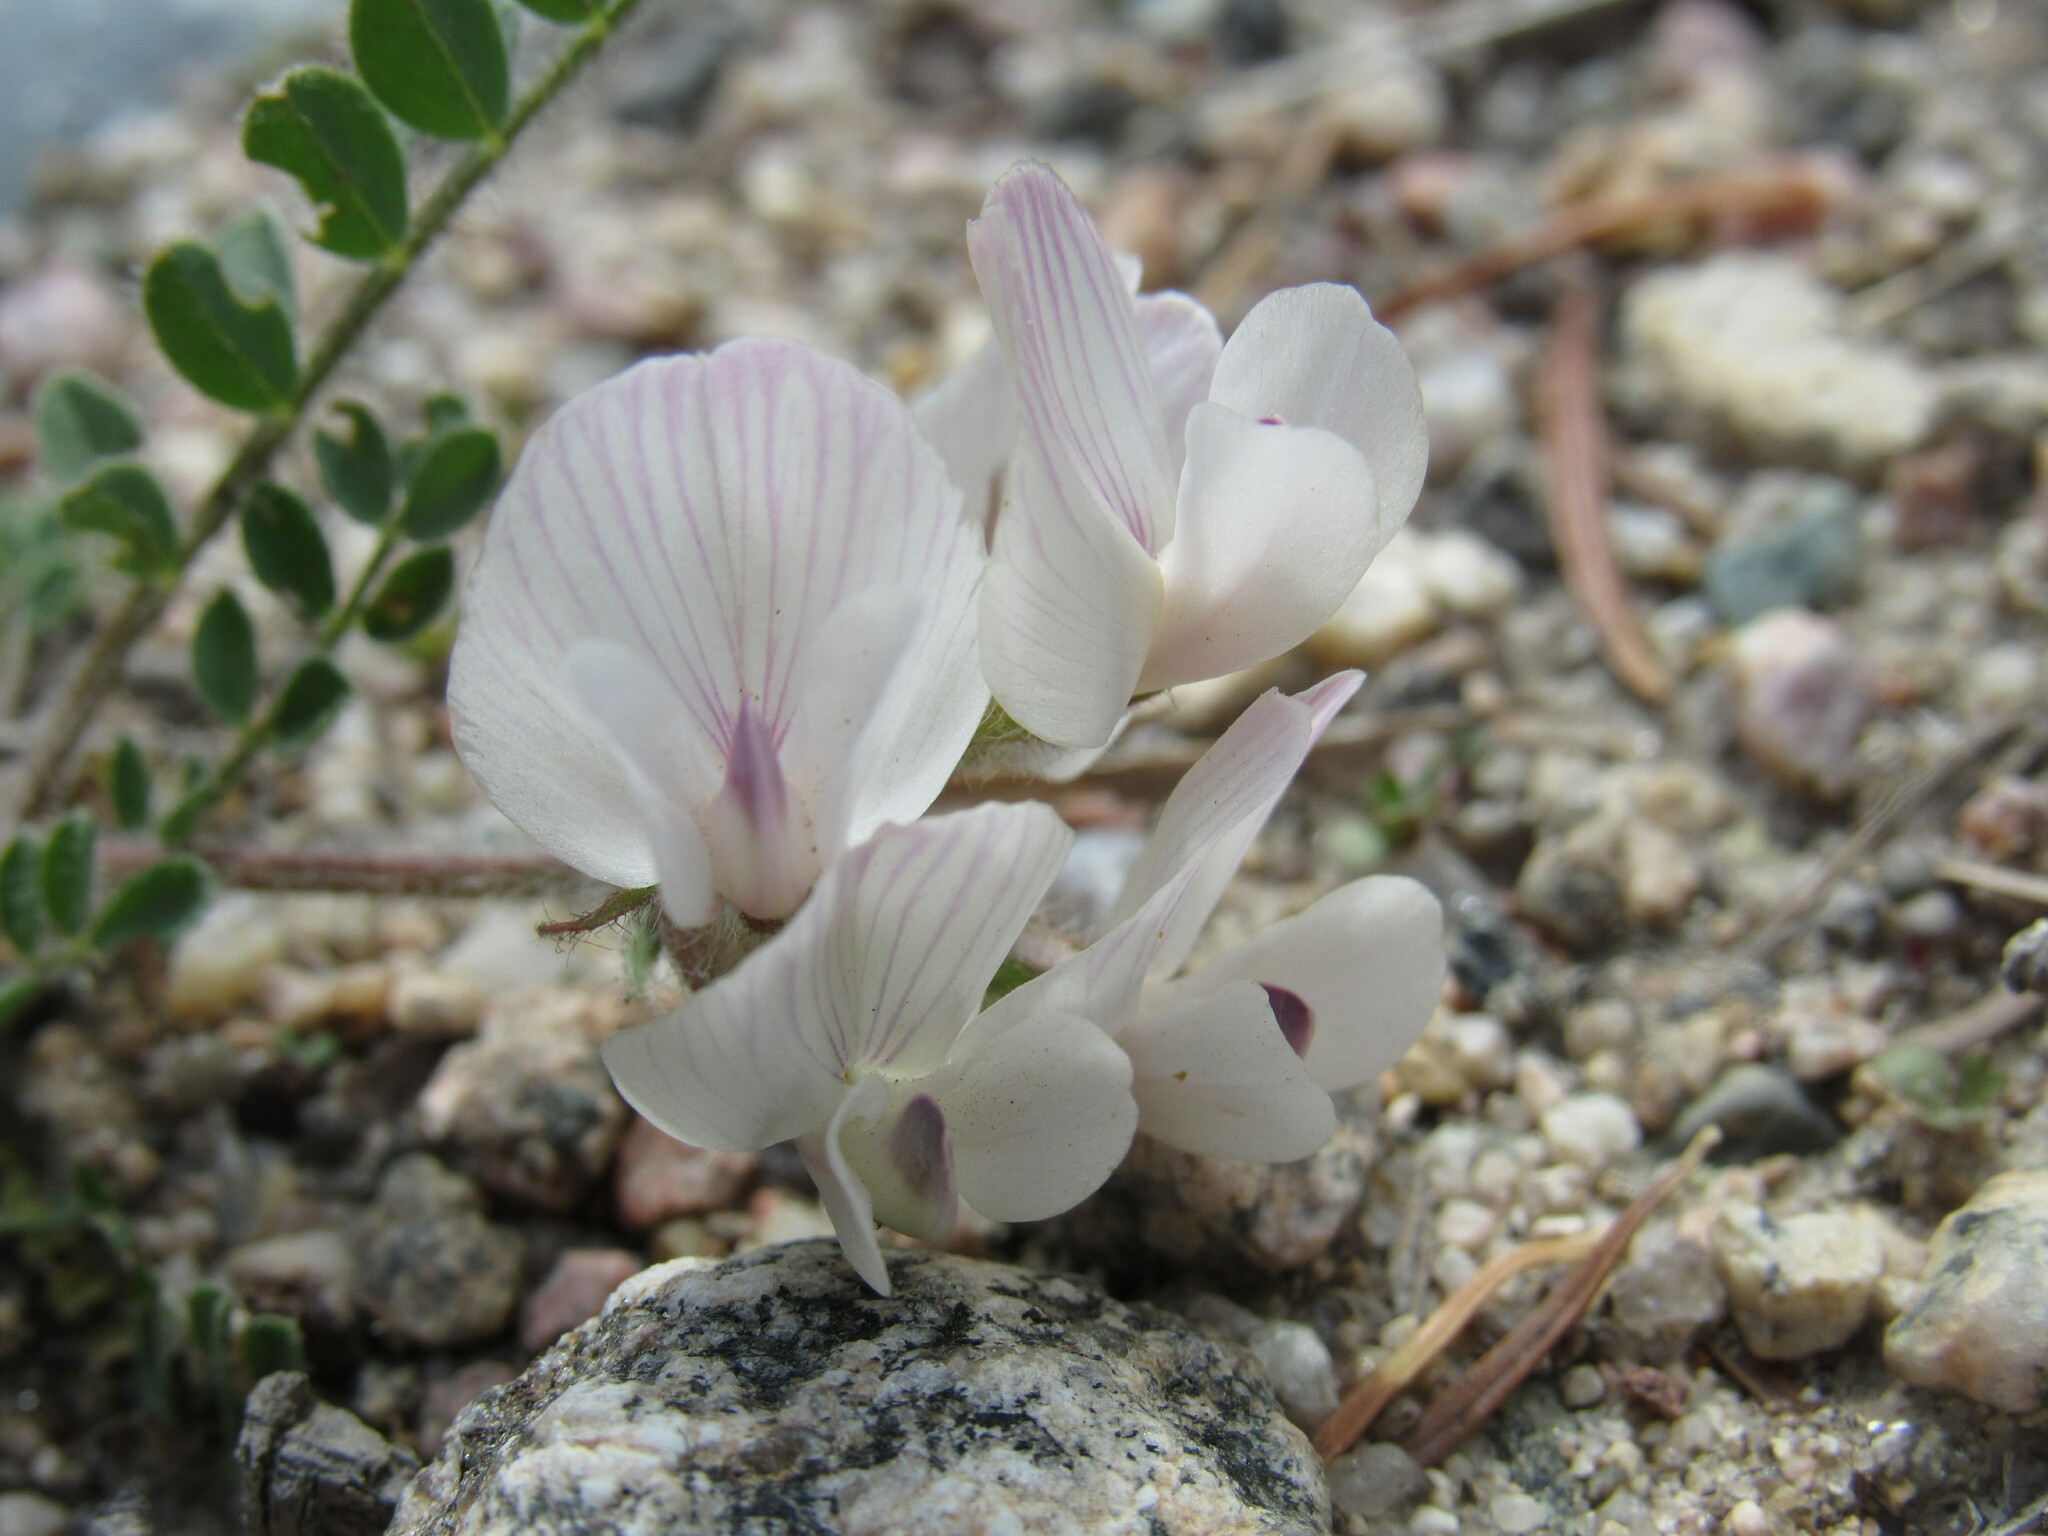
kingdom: Plantae
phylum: Tracheophyta
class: Magnoliopsida
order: Fabales
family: Fabaceae
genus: Astragalus
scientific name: Astragalus parryi
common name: Parry milk-vetch
